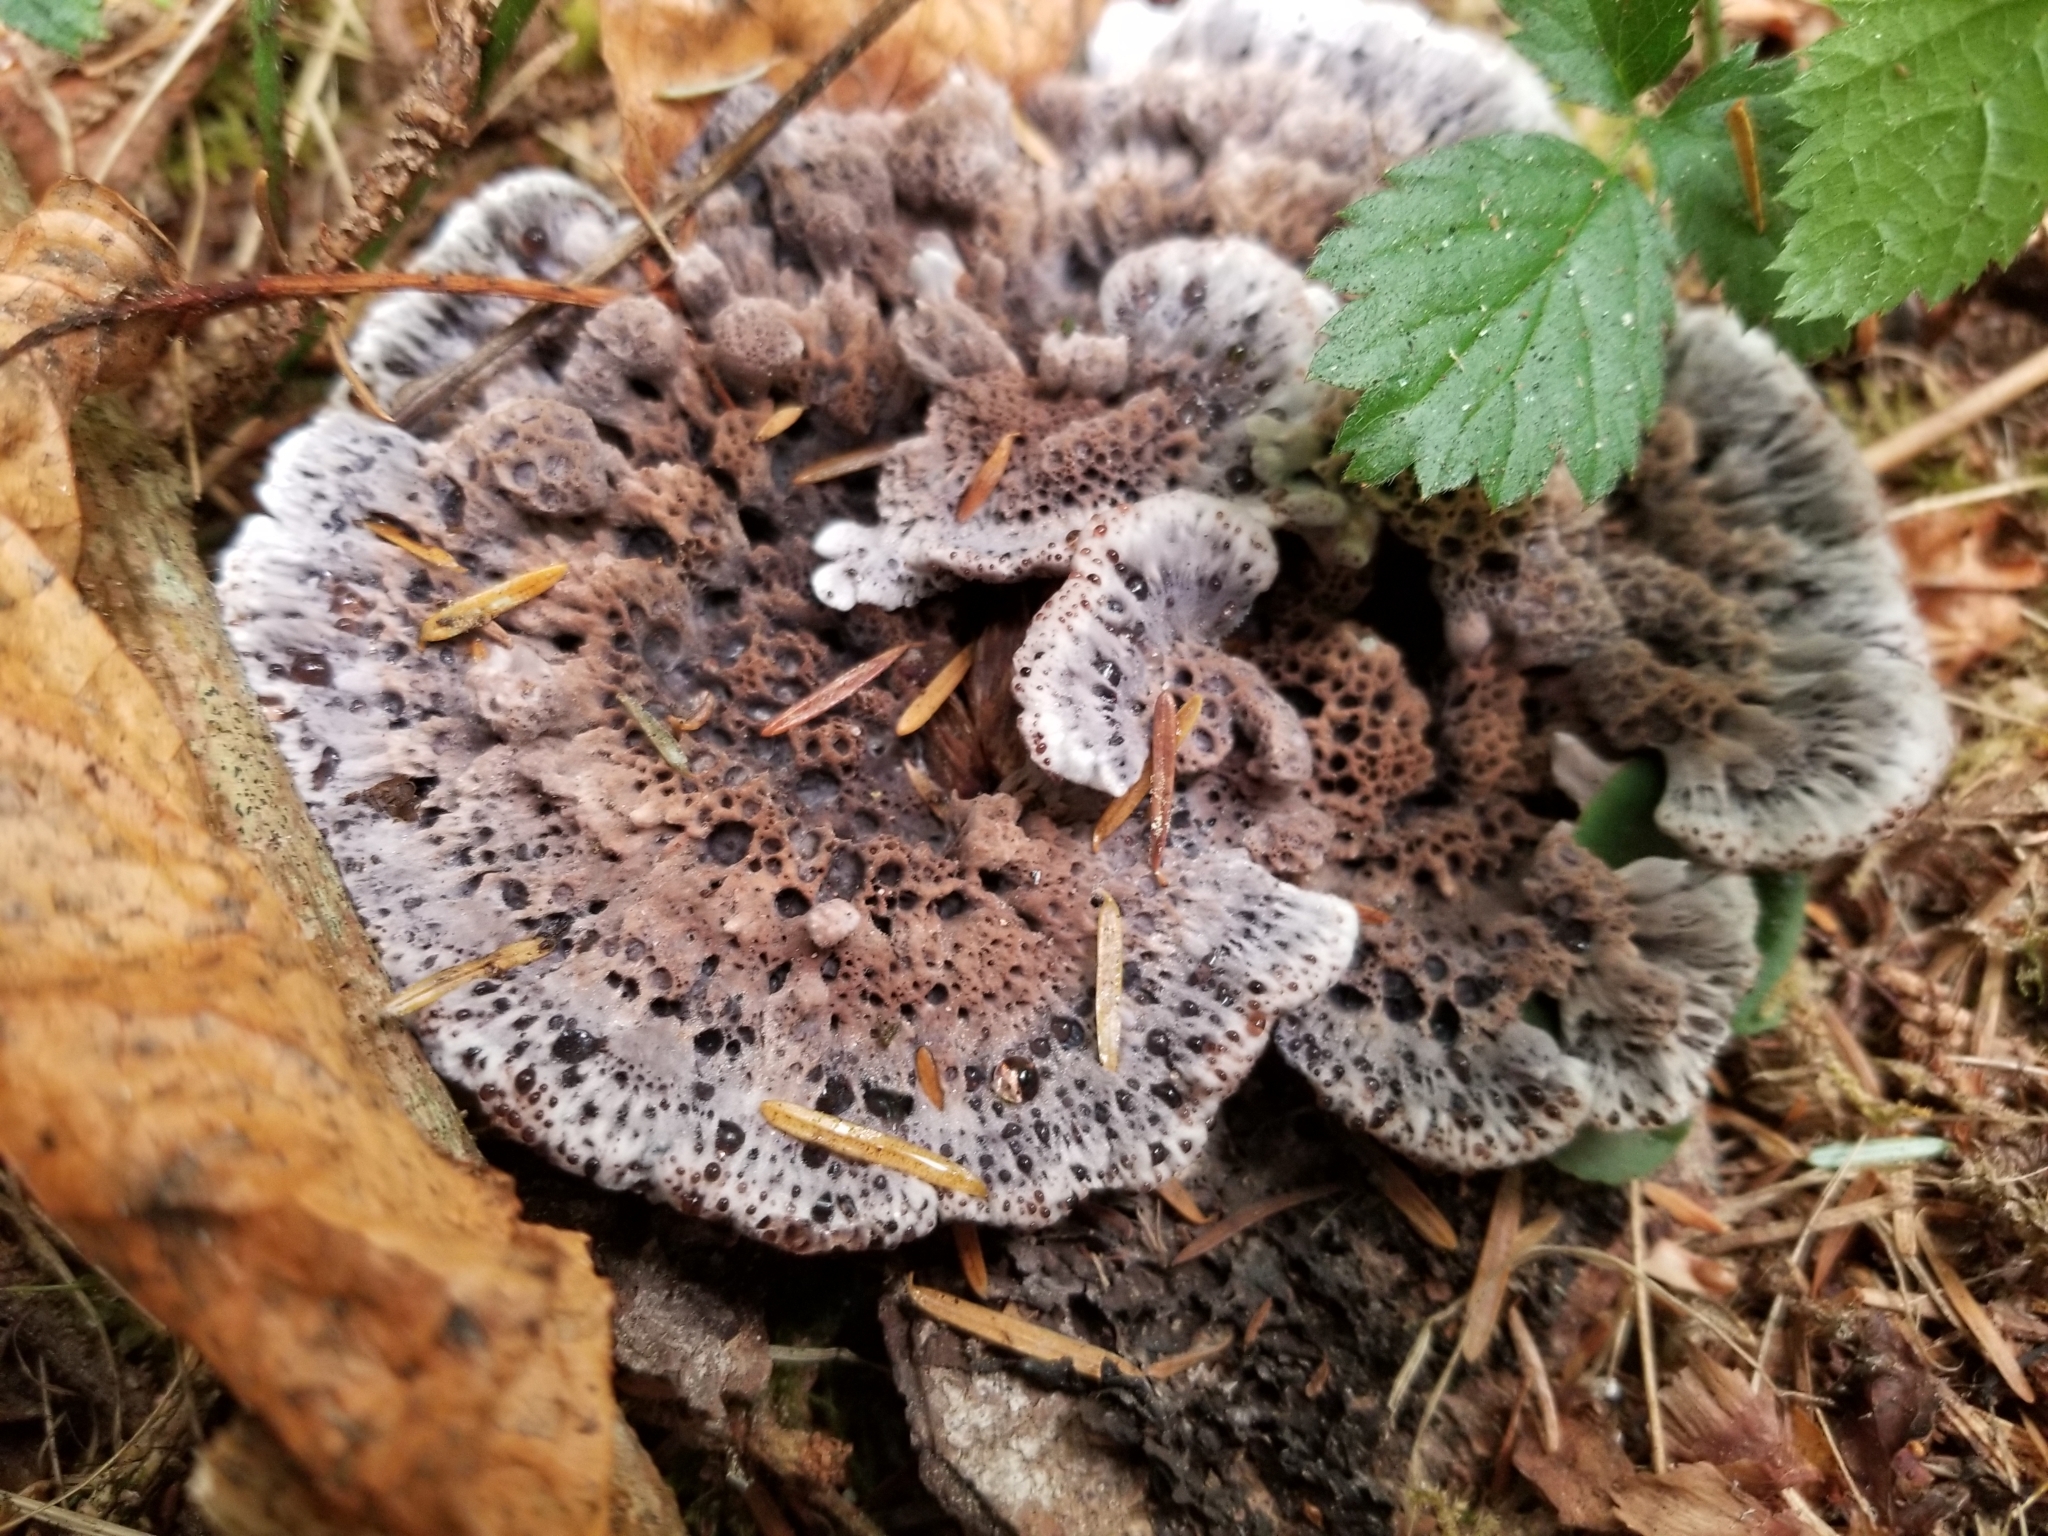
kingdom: Fungi
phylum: Basidiomycota
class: Agaricomycetes
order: Thelephorales
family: Bankeraceae
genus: Hydnellum
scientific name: Hydnellum cyanopodium
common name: Bleeding blue tooth
